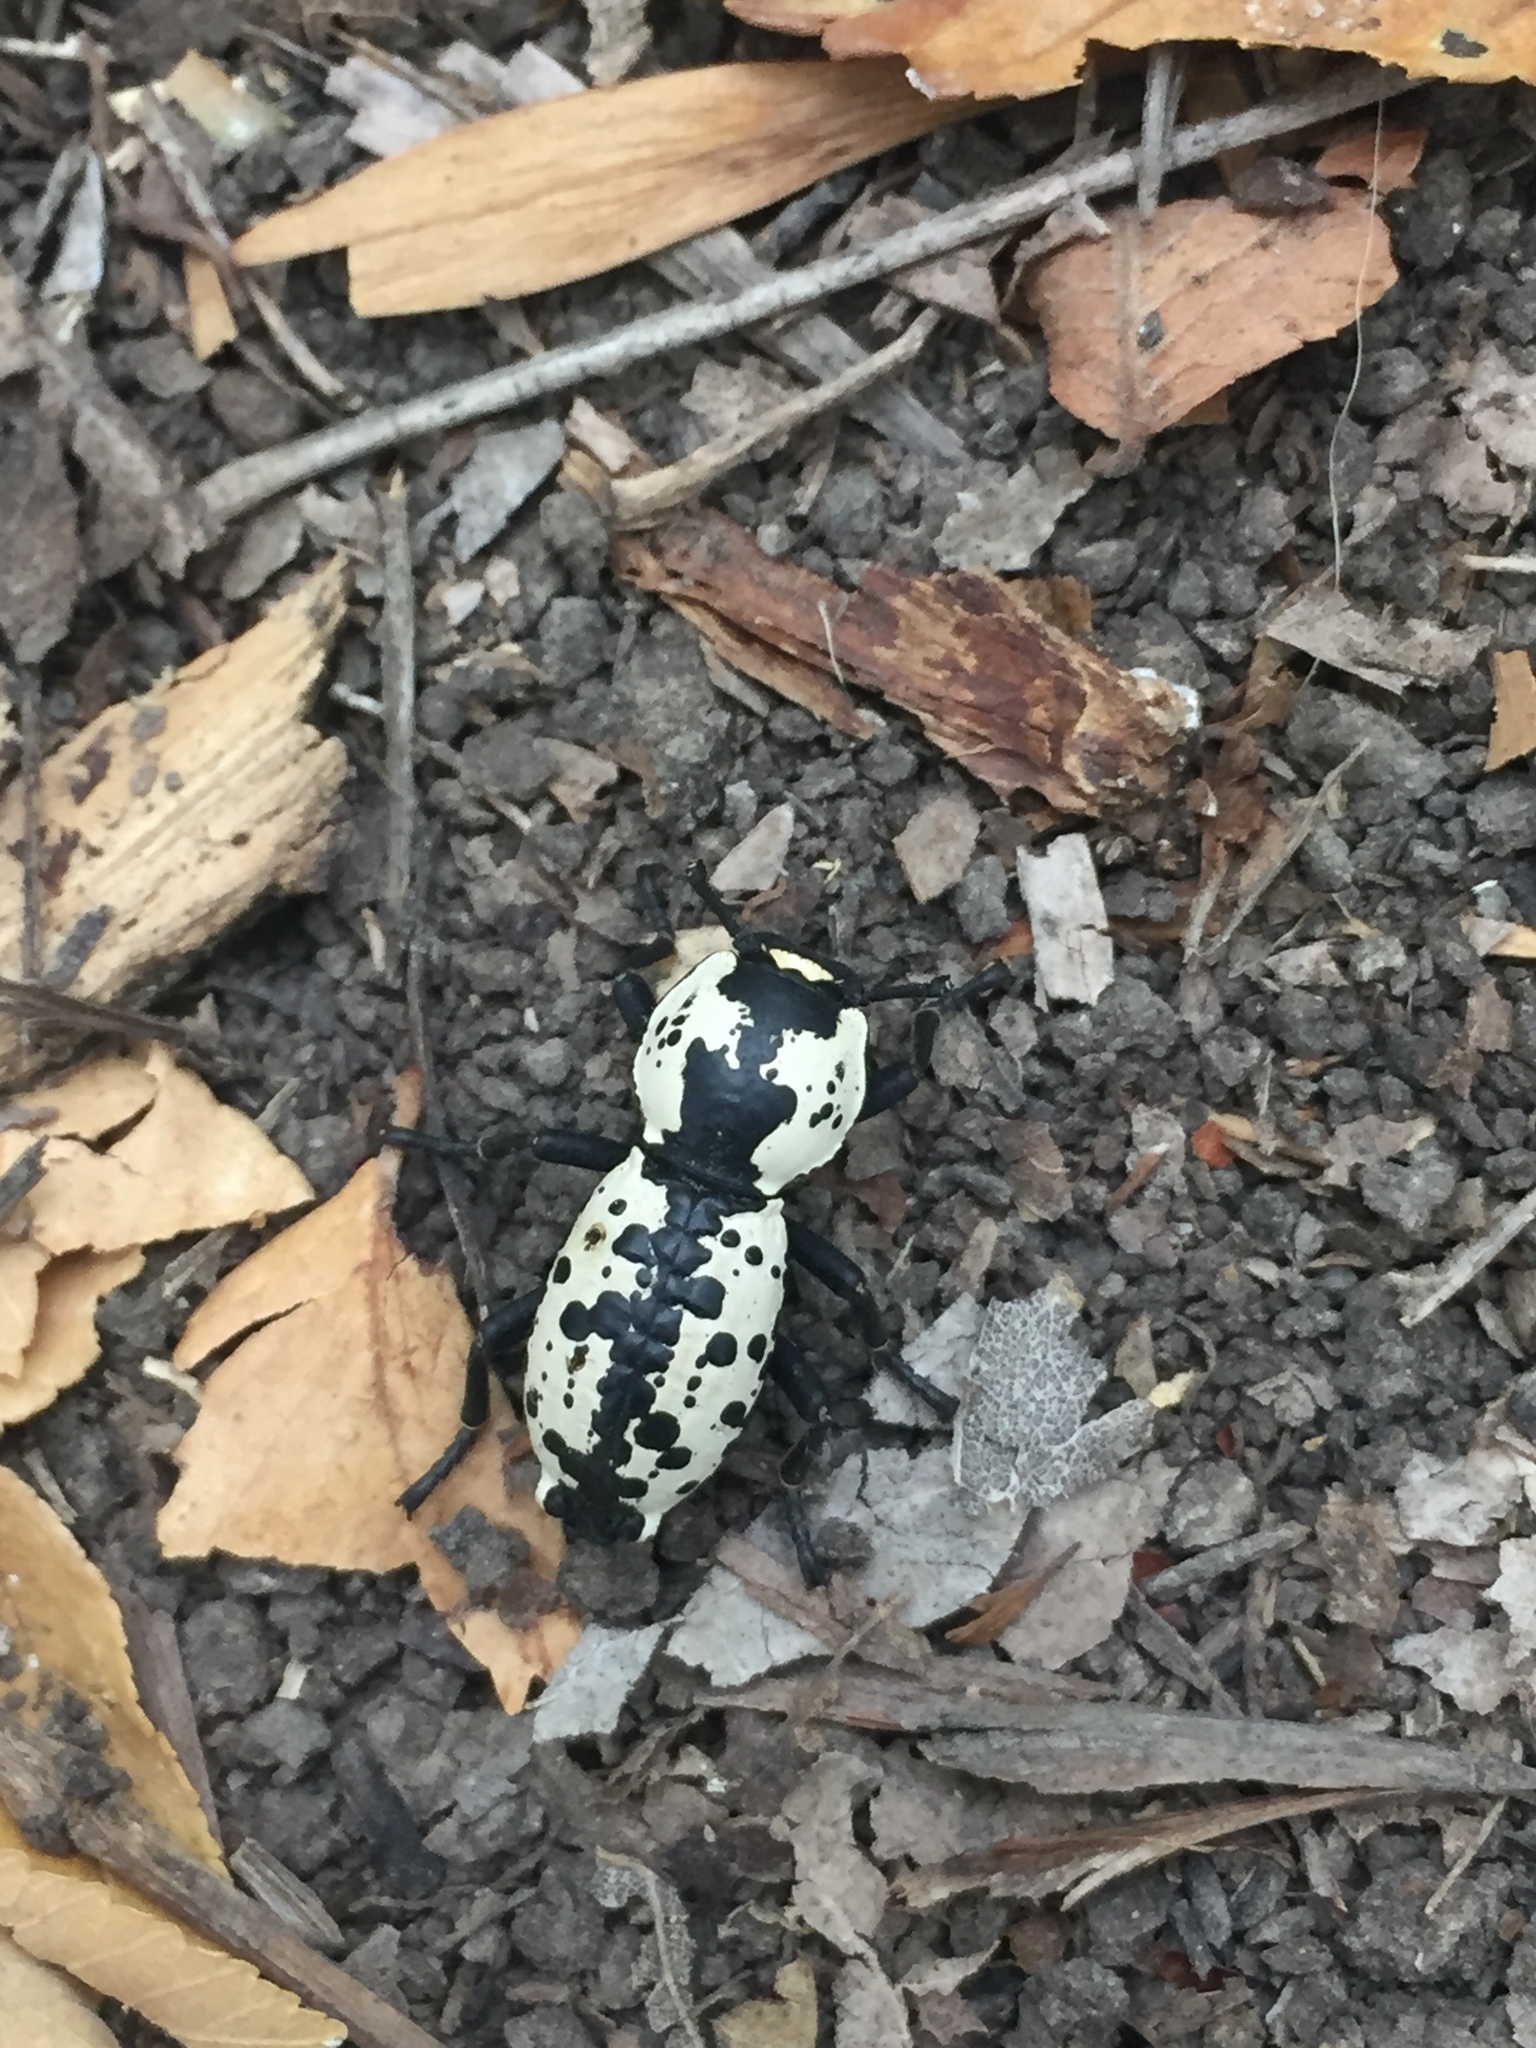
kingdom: Animalia
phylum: Arthropoda
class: Insecta
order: Coleoptera
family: Zopheridae
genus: Zopherus
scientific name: Zopherus nodulosus
